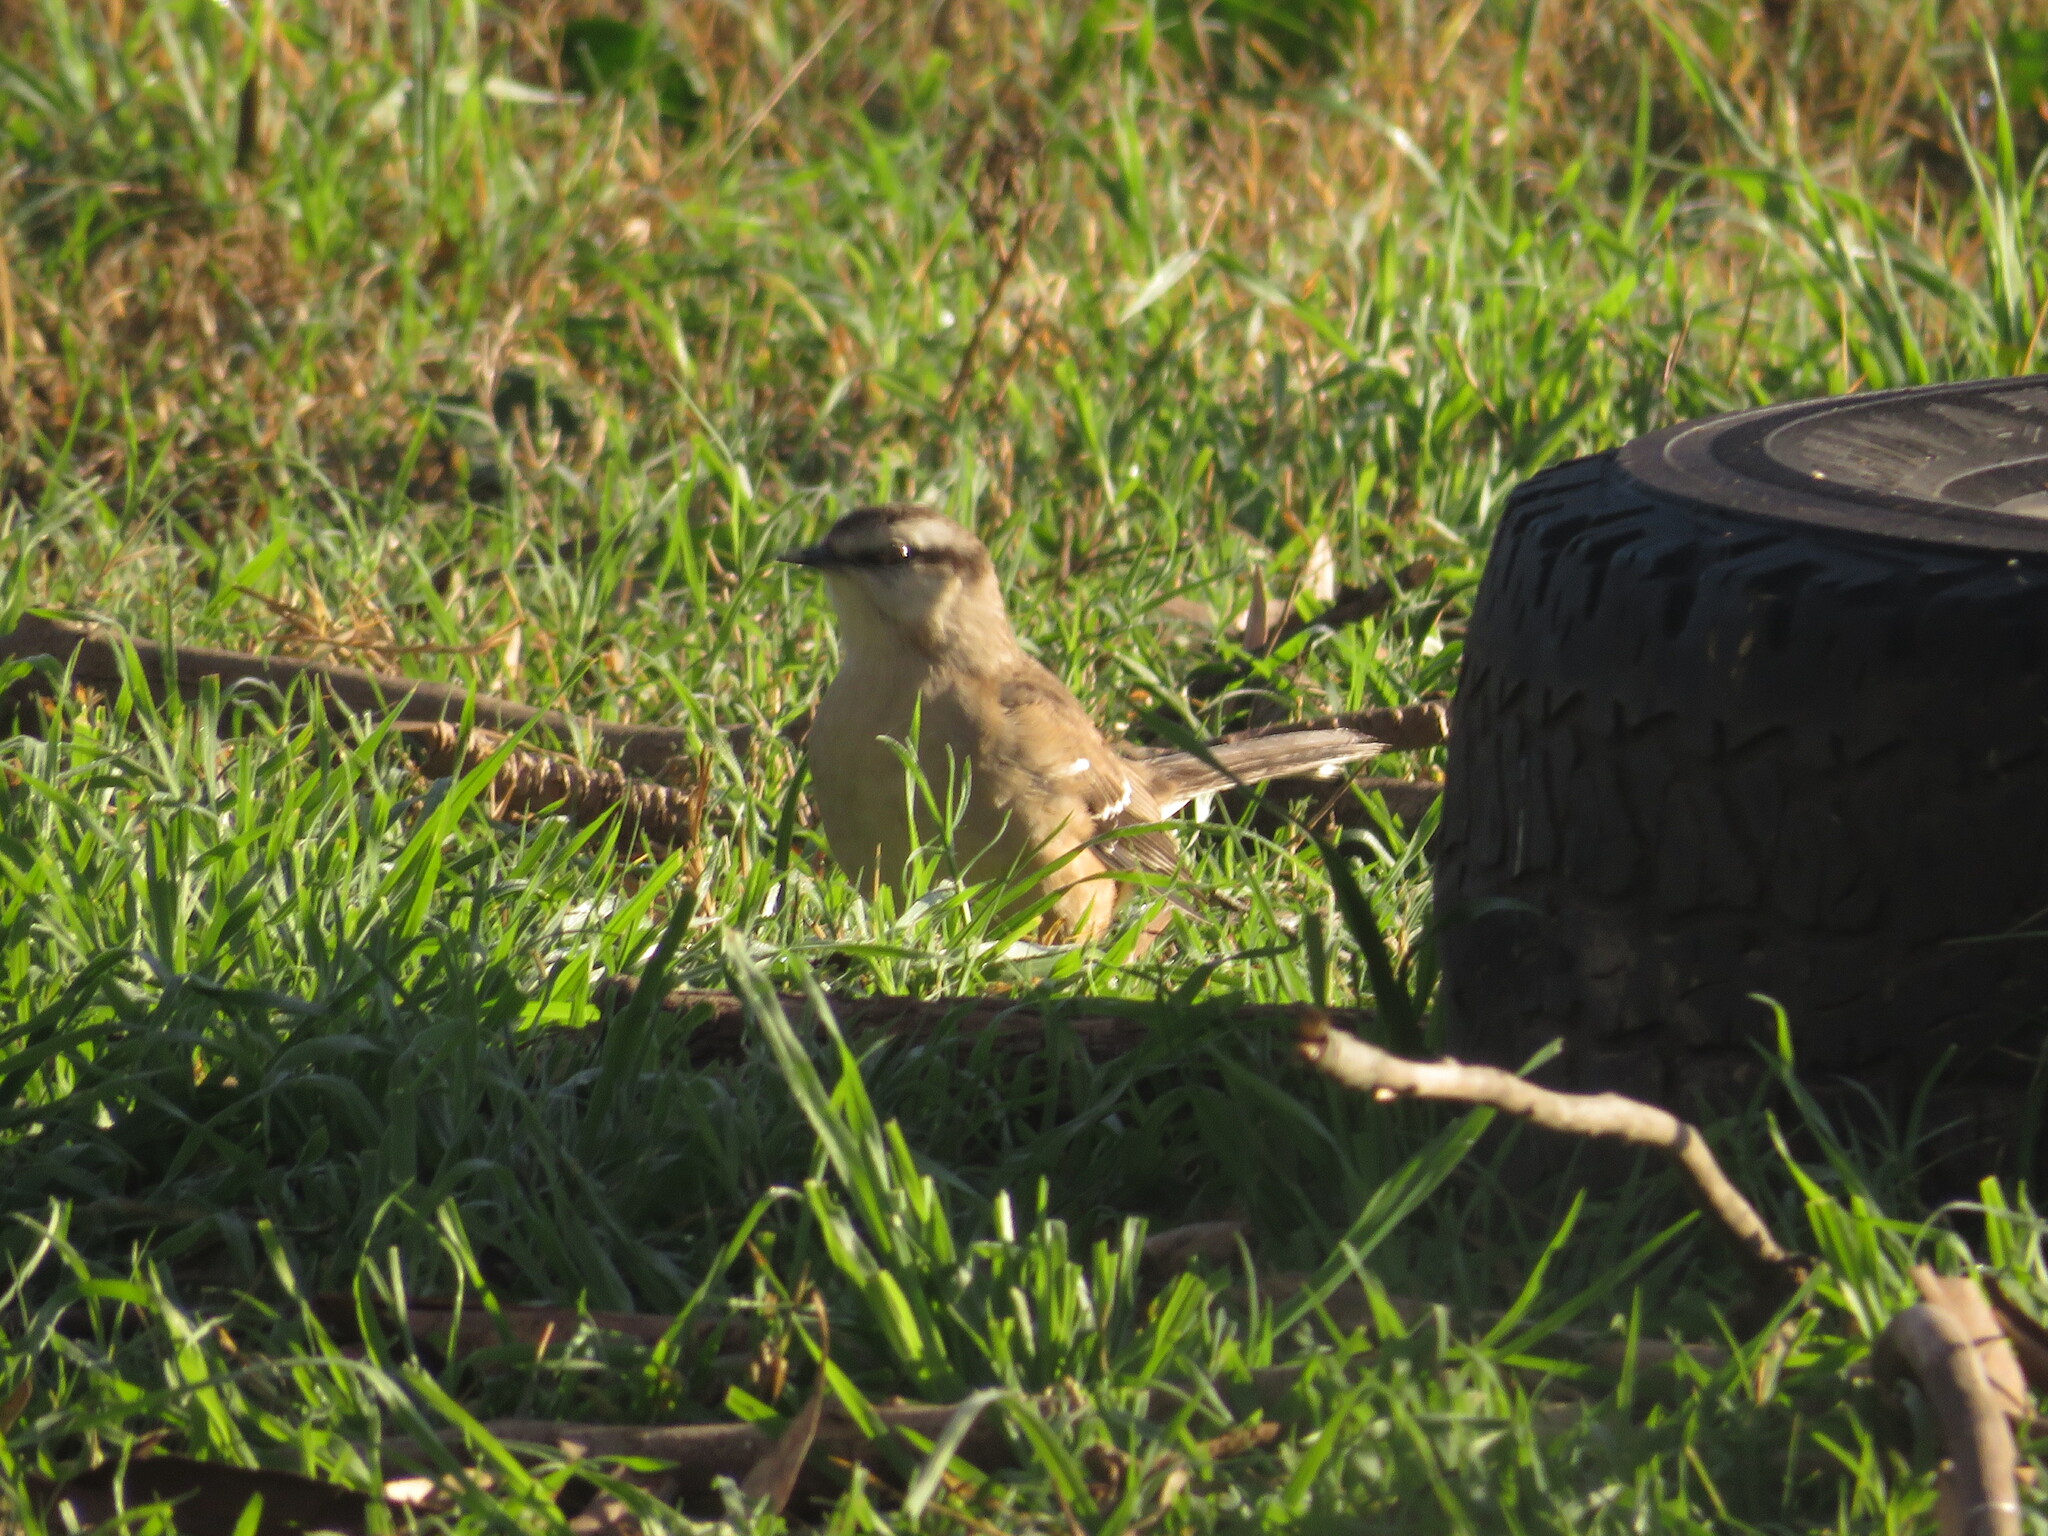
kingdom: Animalia
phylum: Chordata
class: Aves
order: Passeriformes
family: Mimidae
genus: Mimus
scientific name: Mimus saturninus
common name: Chalk-browed mockingbird
